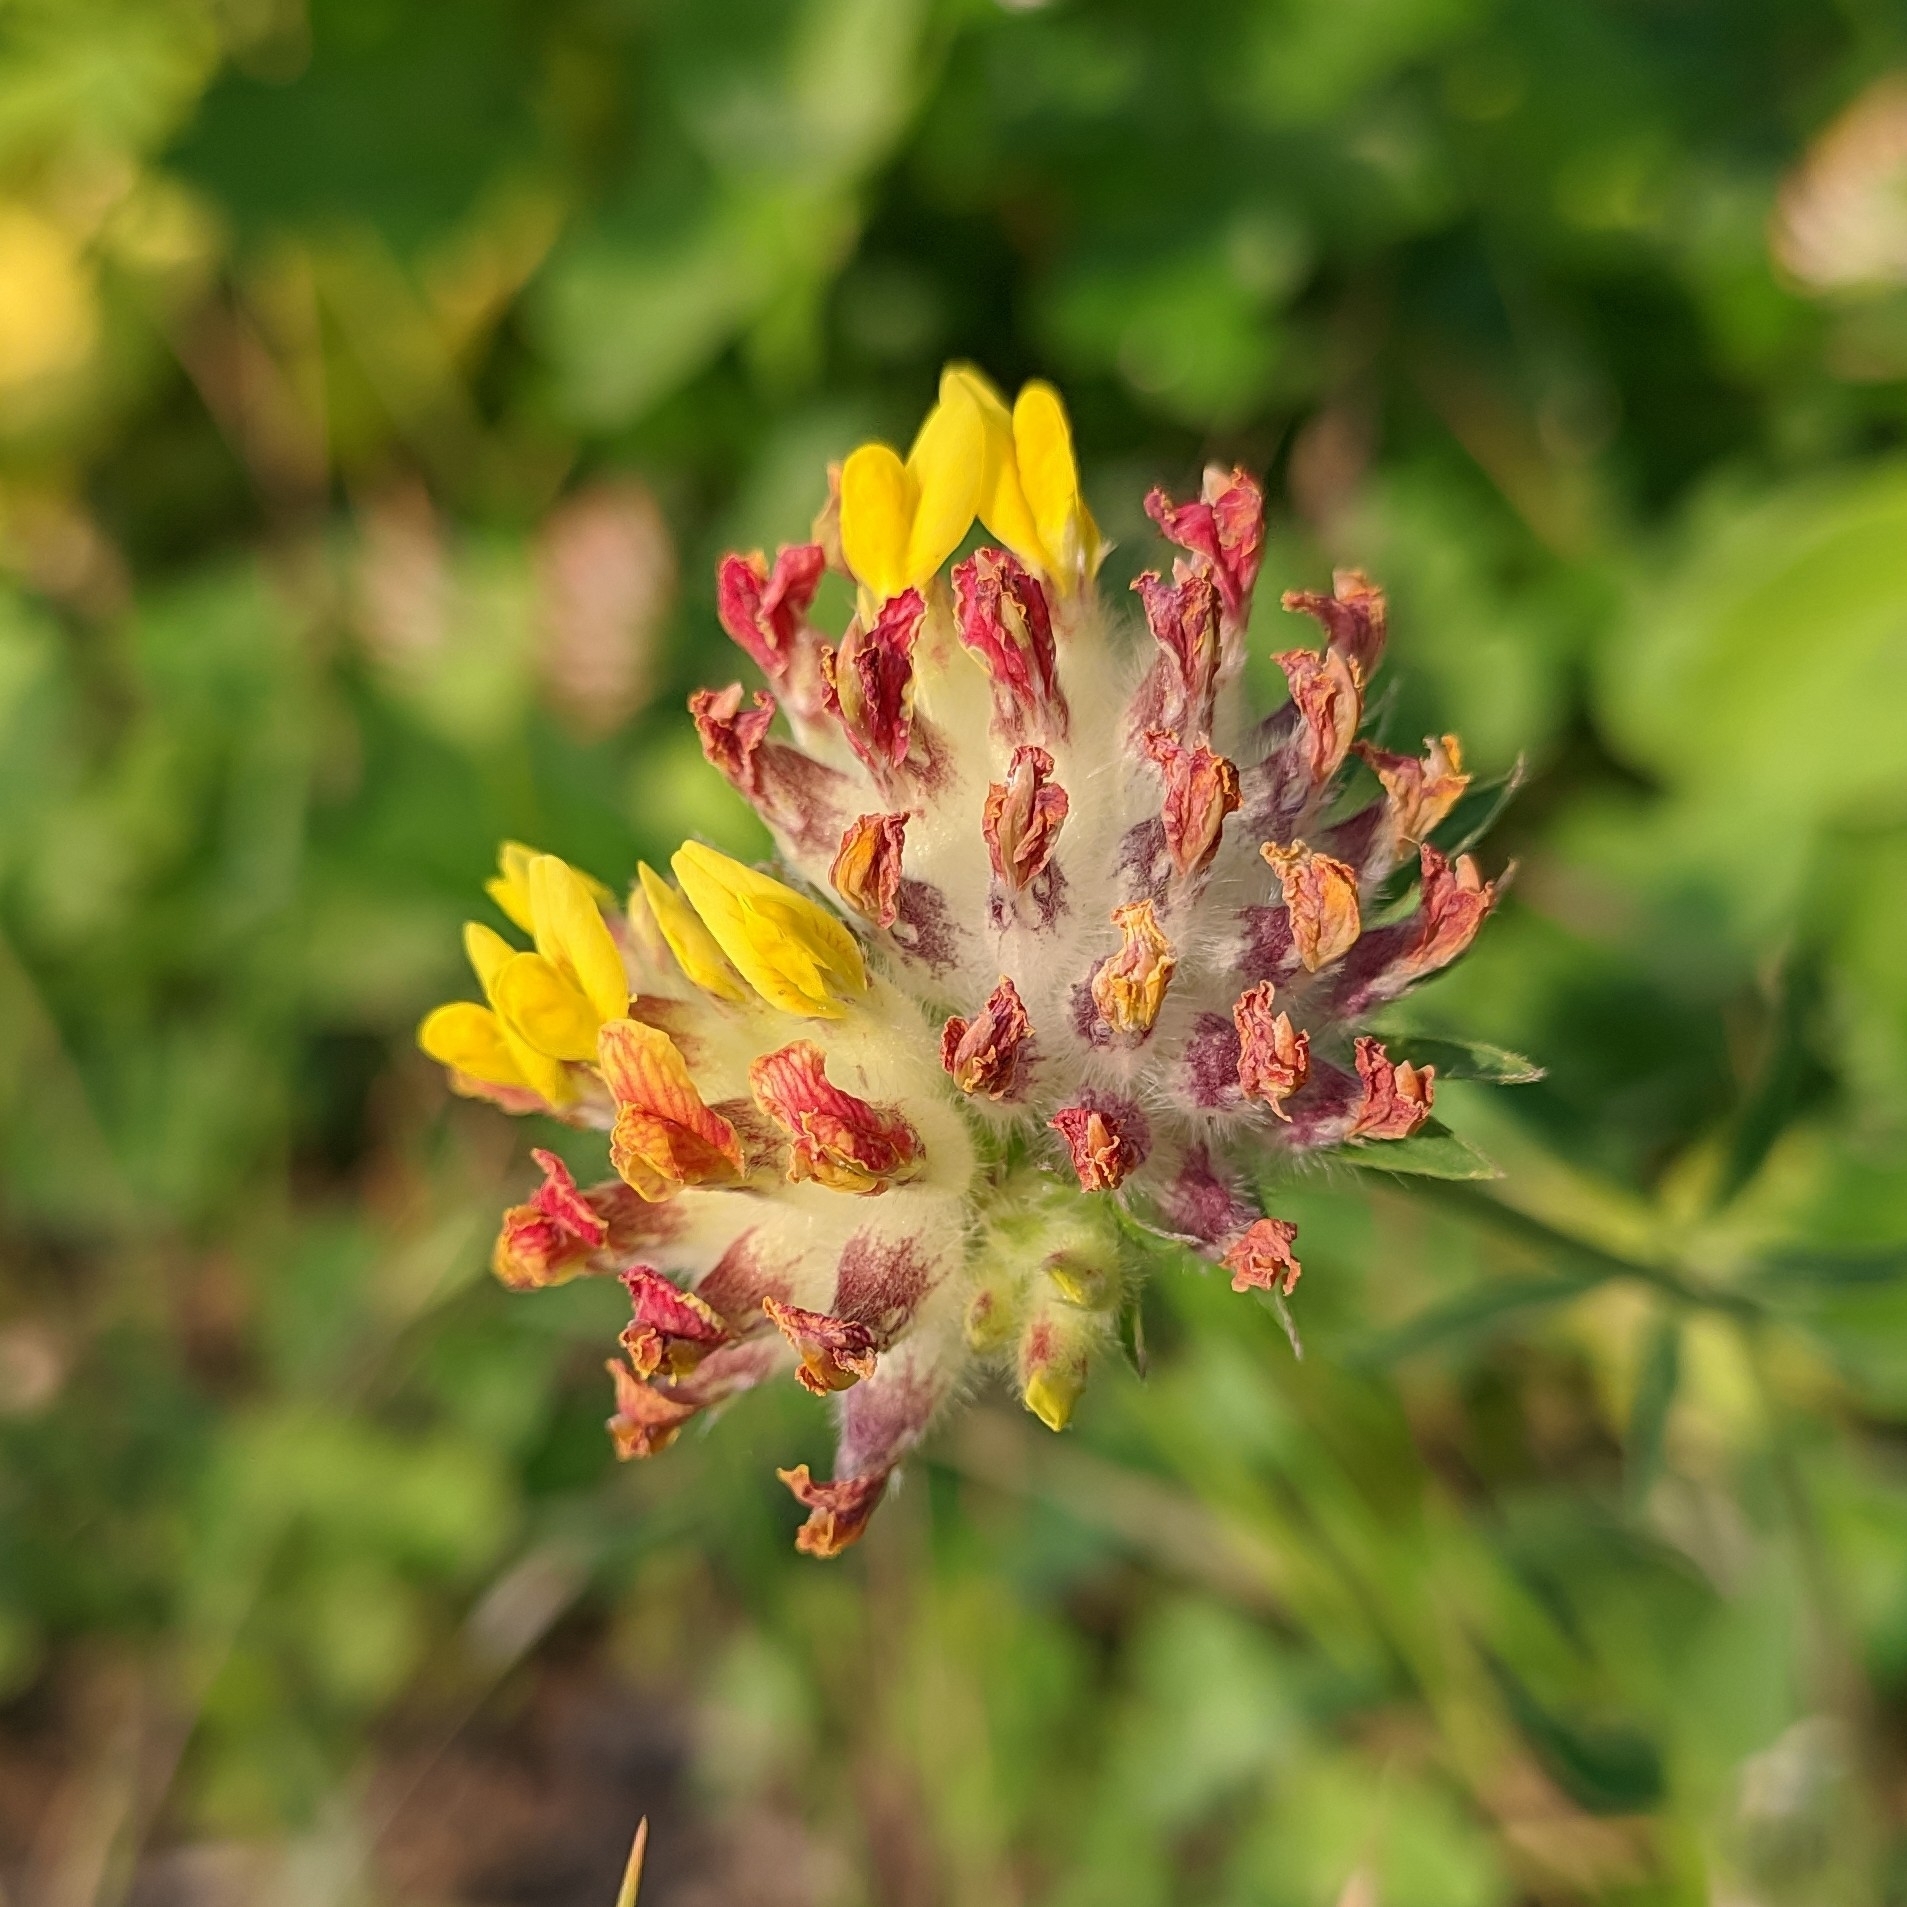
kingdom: Plantae
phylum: Tracheophyta
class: Magnoliopsida
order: Fabales
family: Fabaceae
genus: Anthyllis
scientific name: Anthyllis vulneraria
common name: Kidney vetch
